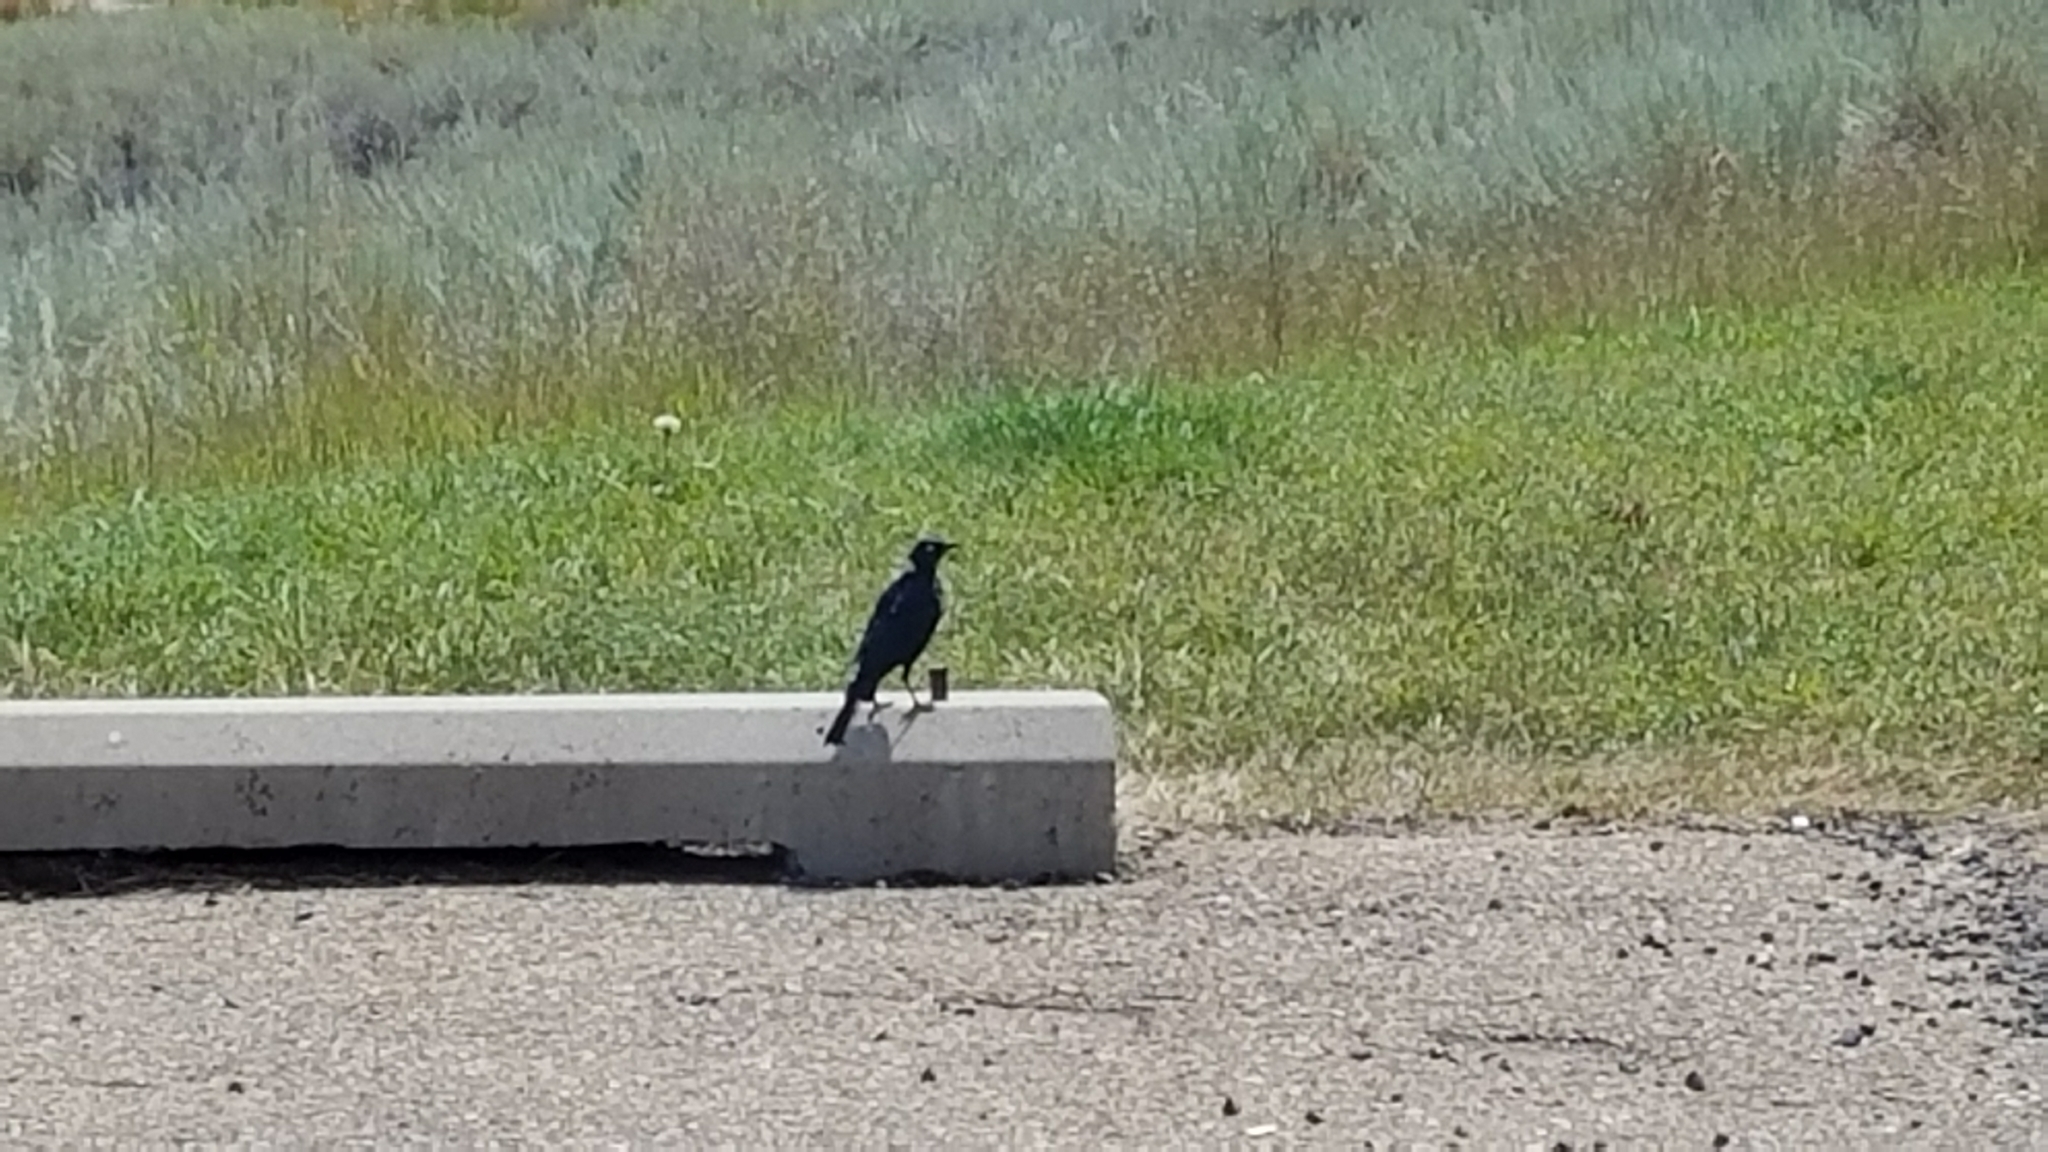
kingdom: Animalia
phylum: Chordata
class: Aves
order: Passeriformes
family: Icteridae
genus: Euphagus
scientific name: Euphagus cyanocephalus
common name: Brewer's blackbird
